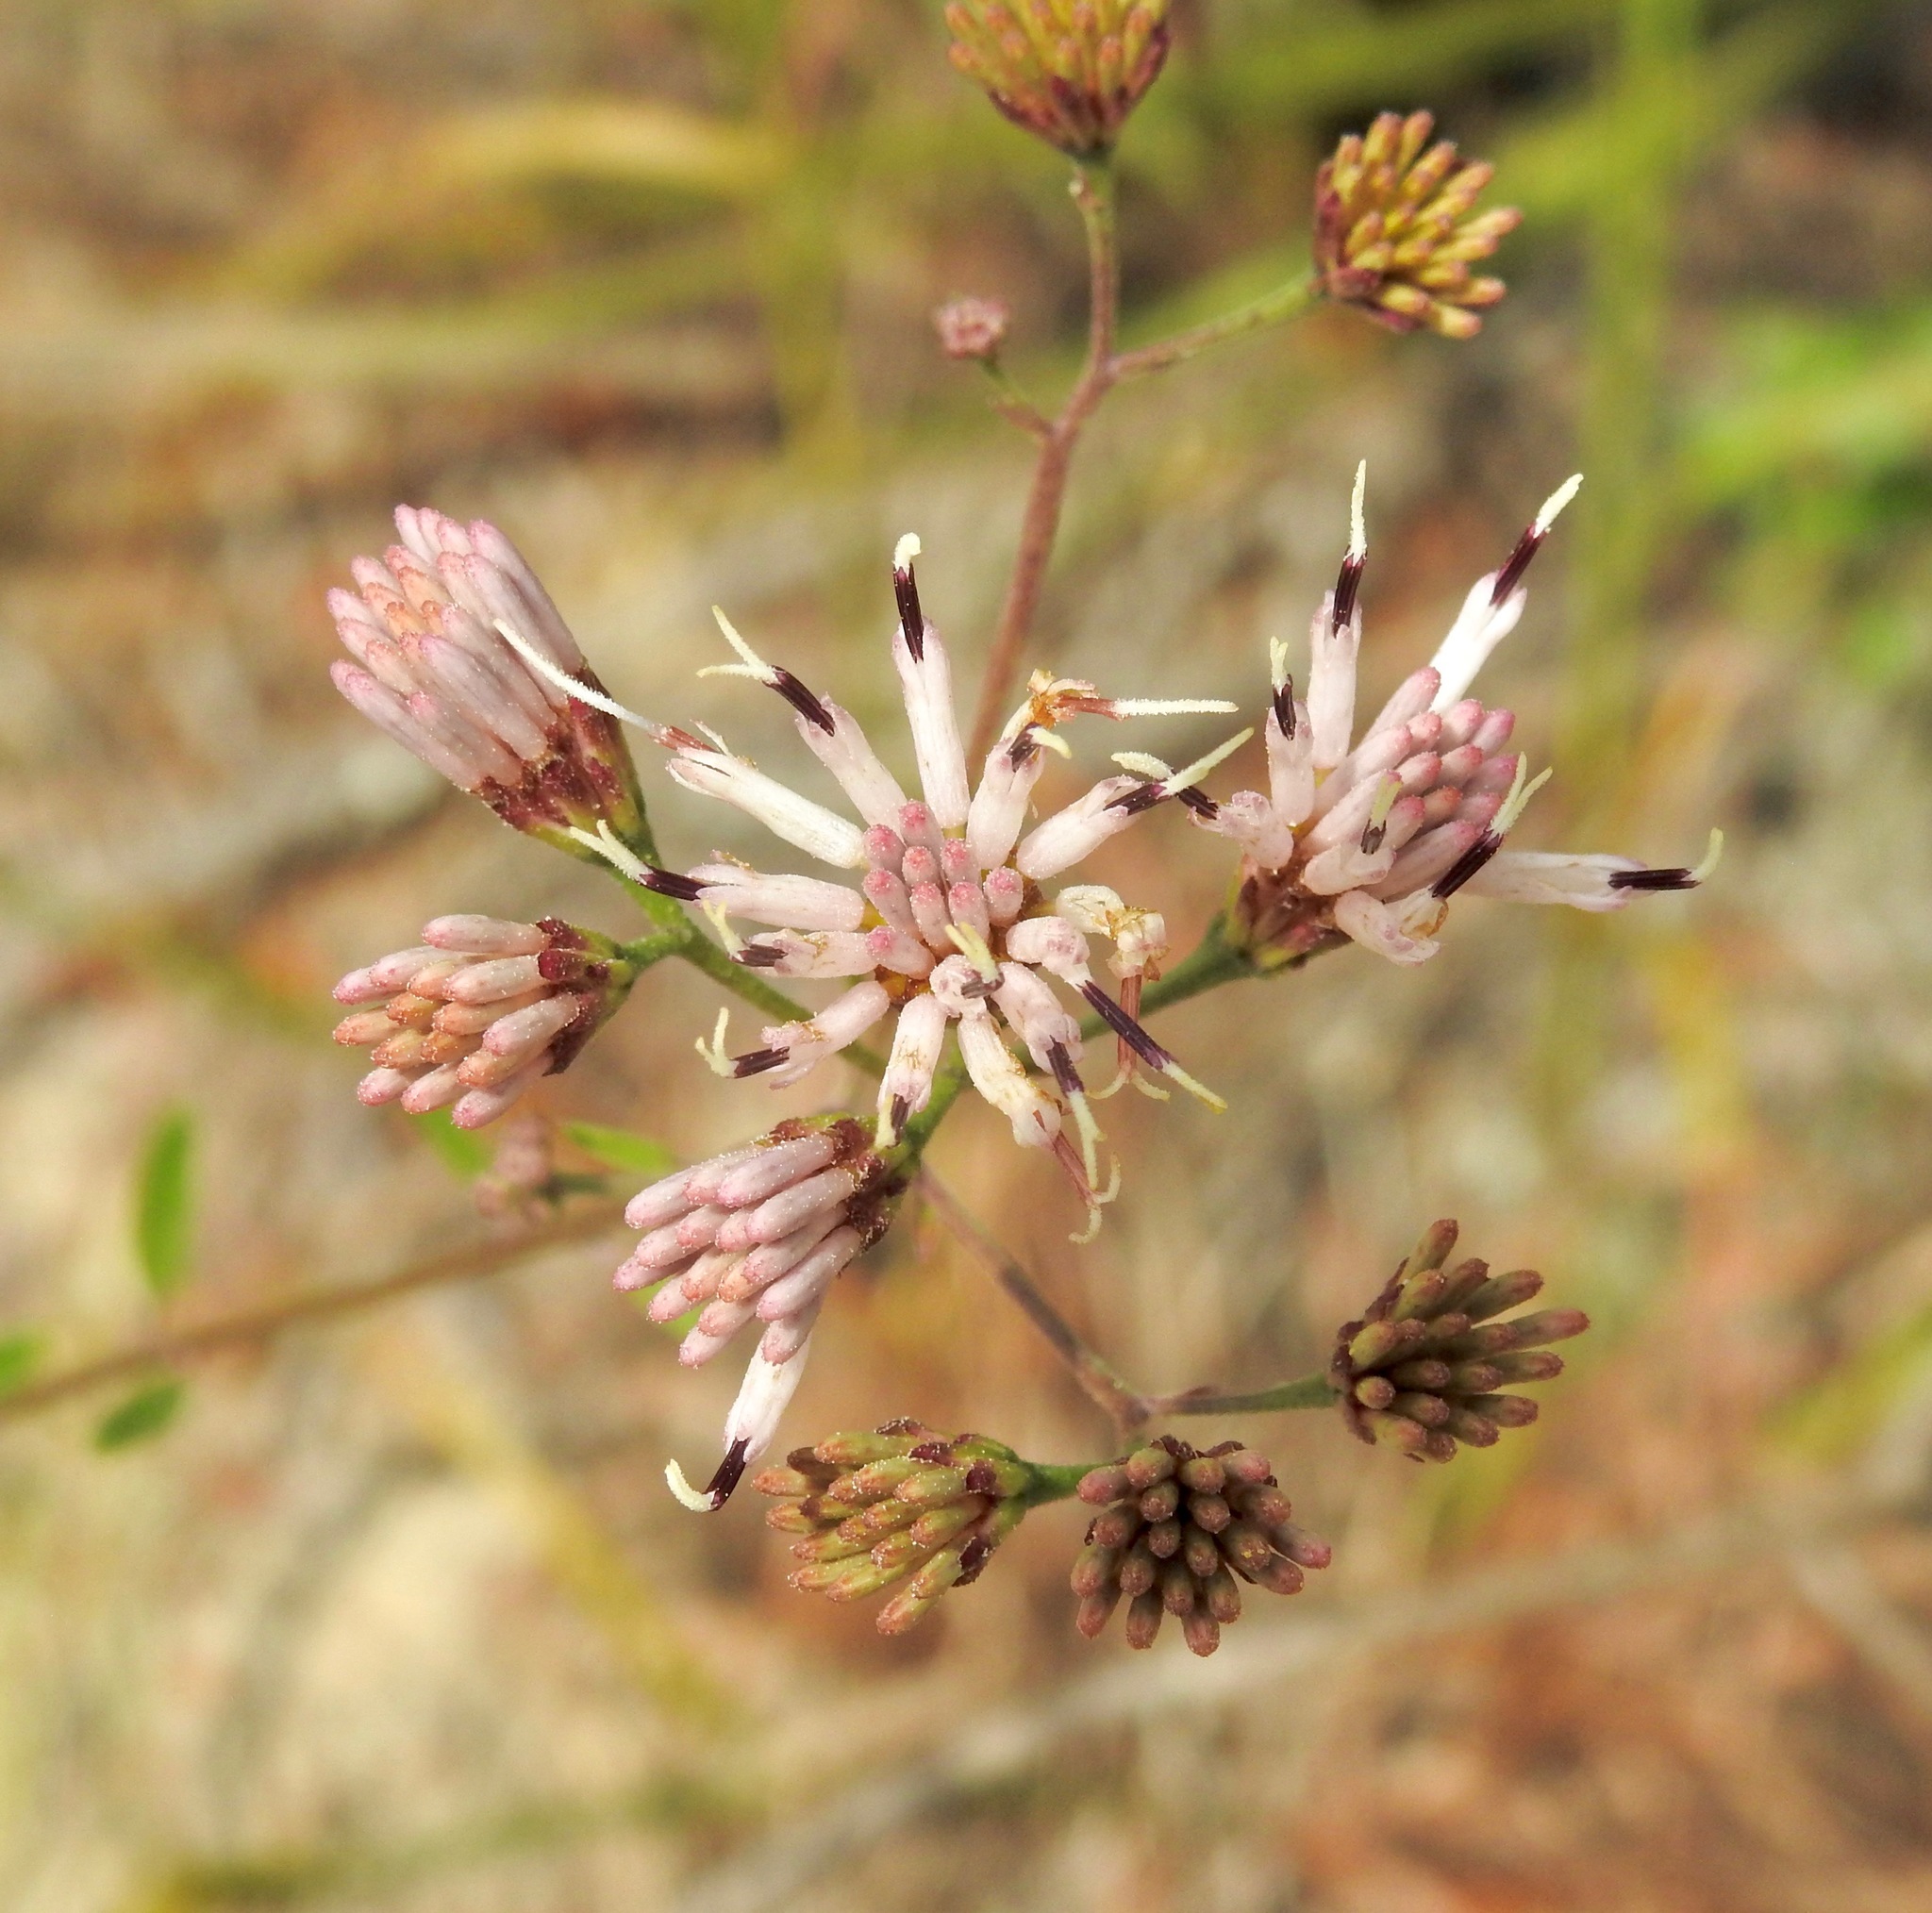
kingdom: Plantae
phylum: Tracheophyta
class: Magnoliopsida
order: Asterales
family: Asteraceae
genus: Palafoxia
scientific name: Palafoxia feayi
